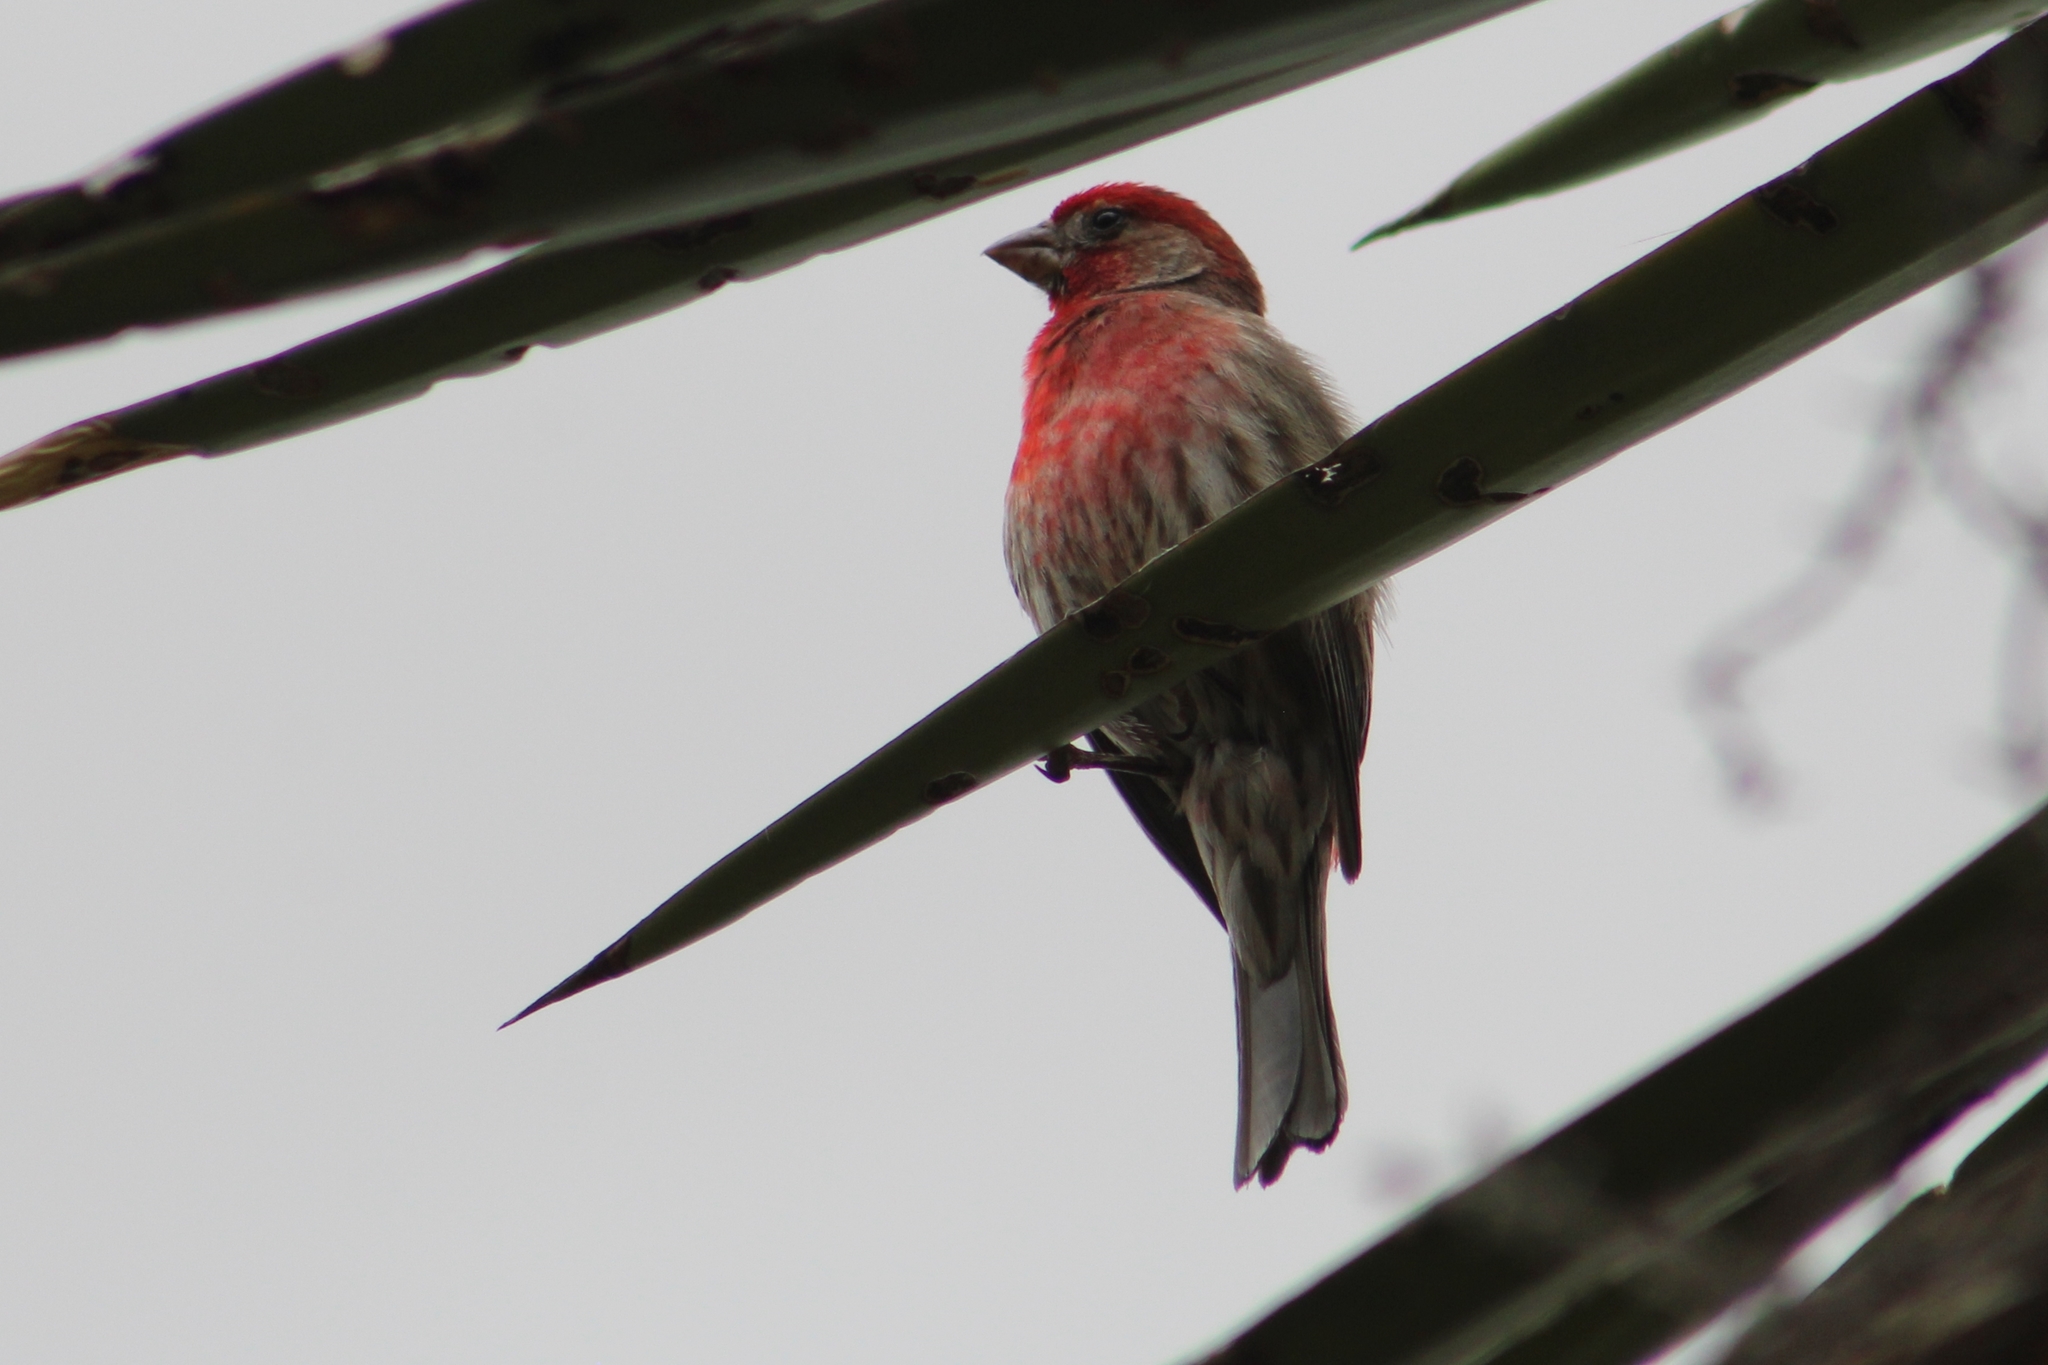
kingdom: Animalia
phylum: Chordata
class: Aves
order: Passeriformes
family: Fringillidae
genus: Haemorhous
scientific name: Haemorhous mexicanus
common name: House finch
